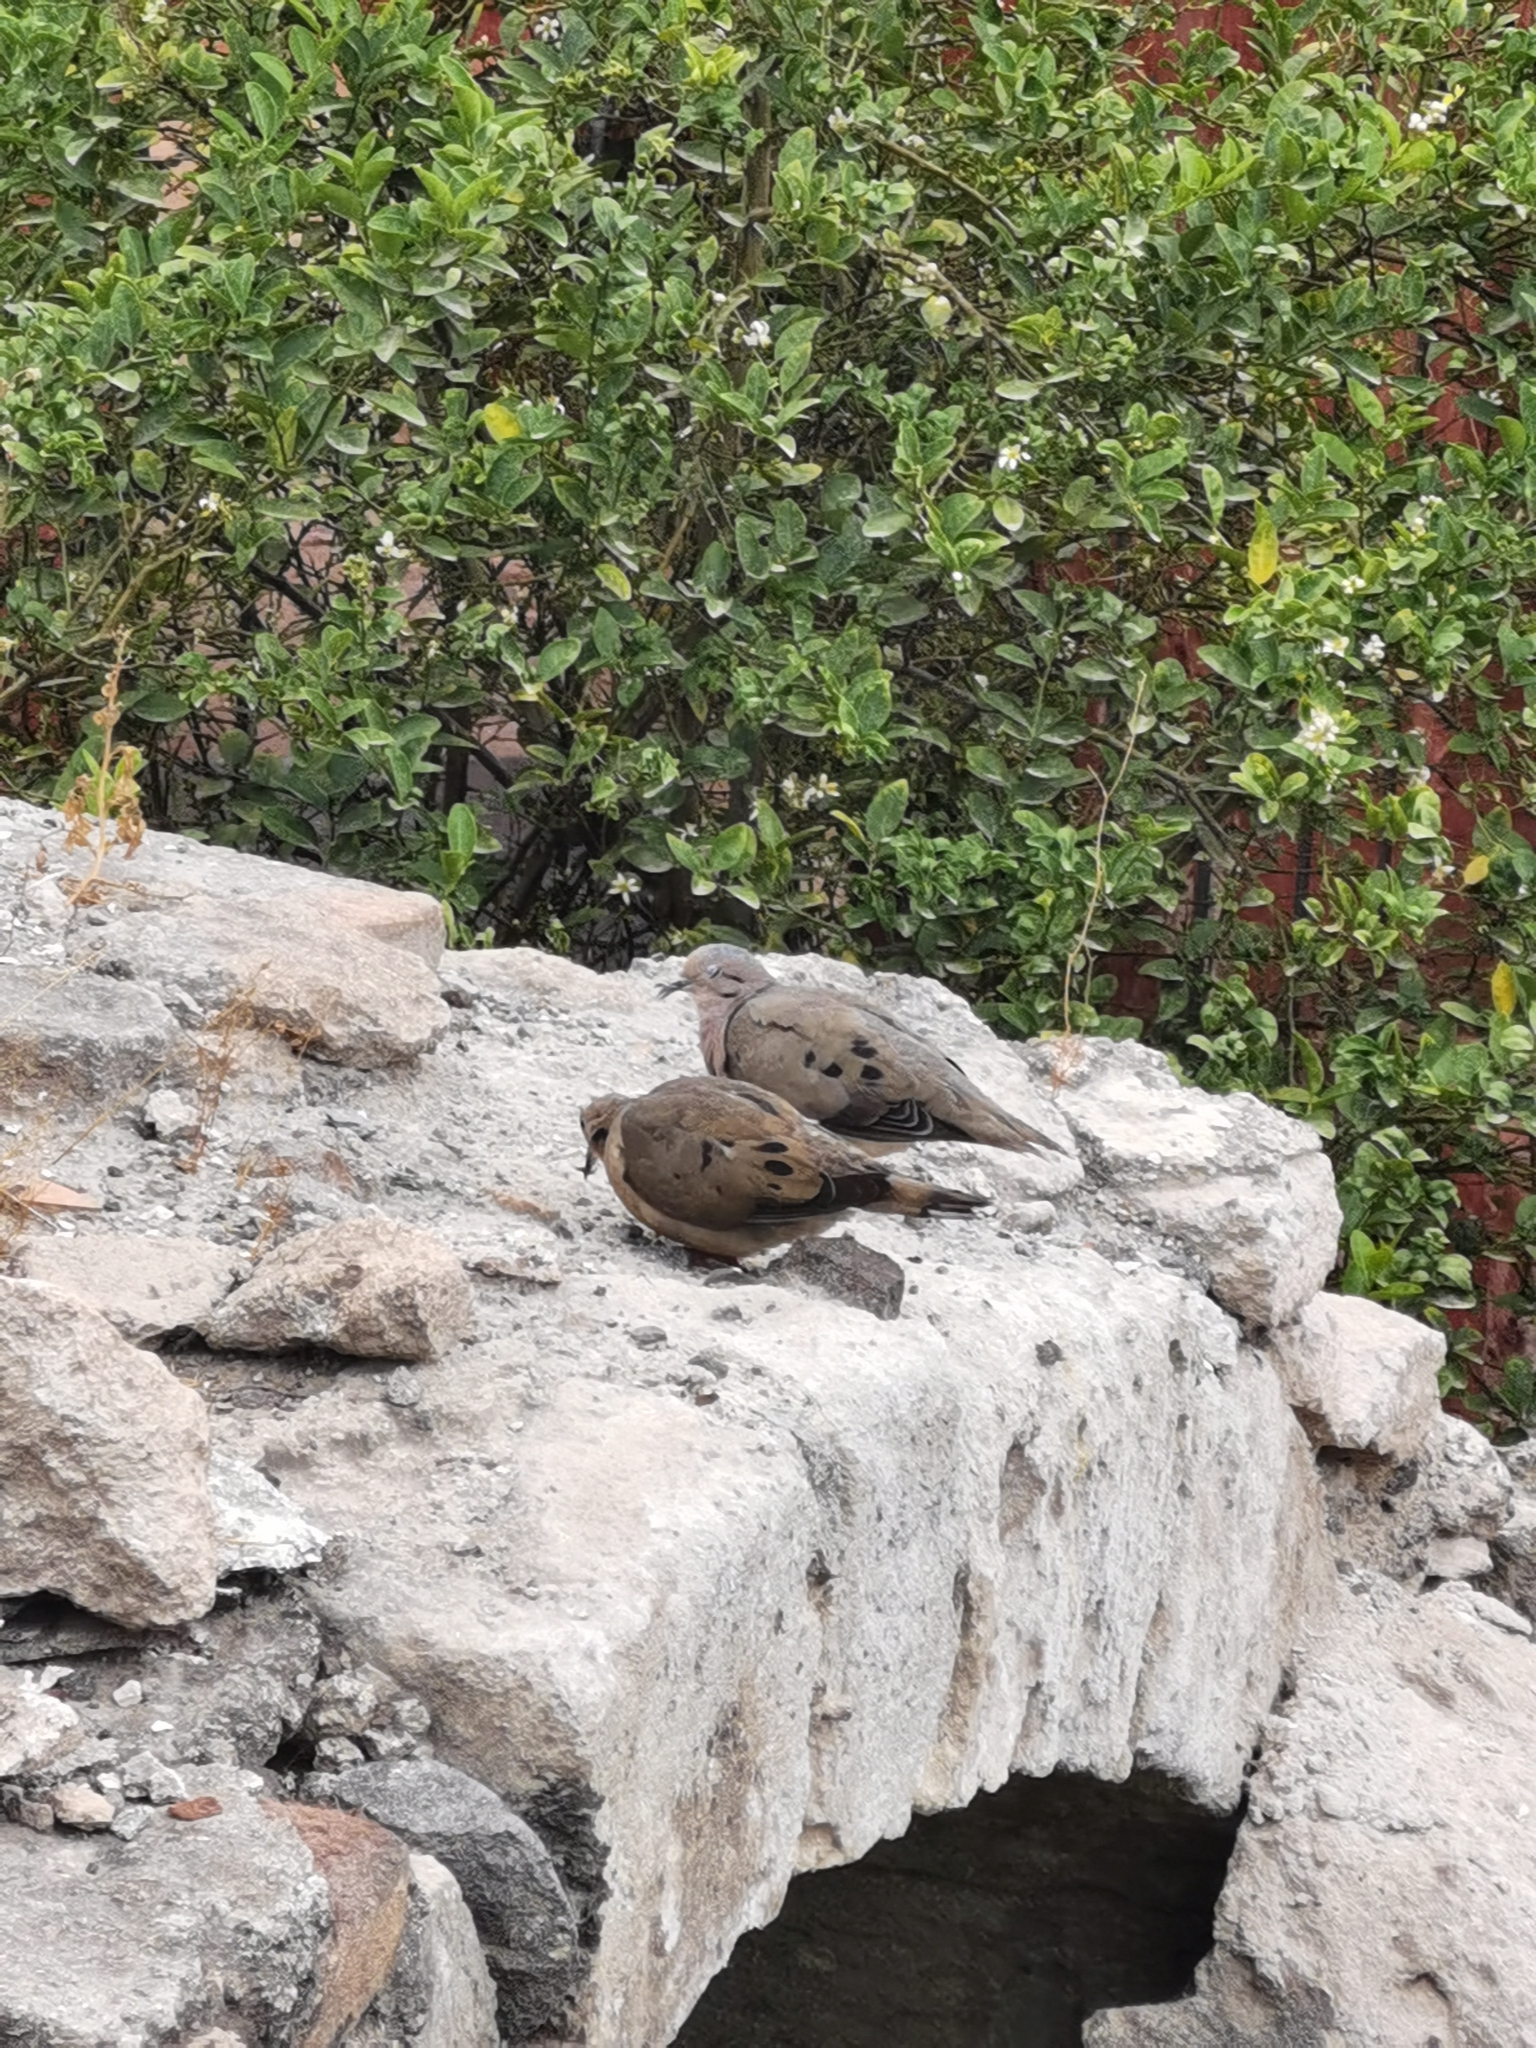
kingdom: Animalia
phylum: Chordata
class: Aves
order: Columbiformes
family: Columbidae
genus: Zenaida
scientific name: Zenaida auriculata
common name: Eared dove
